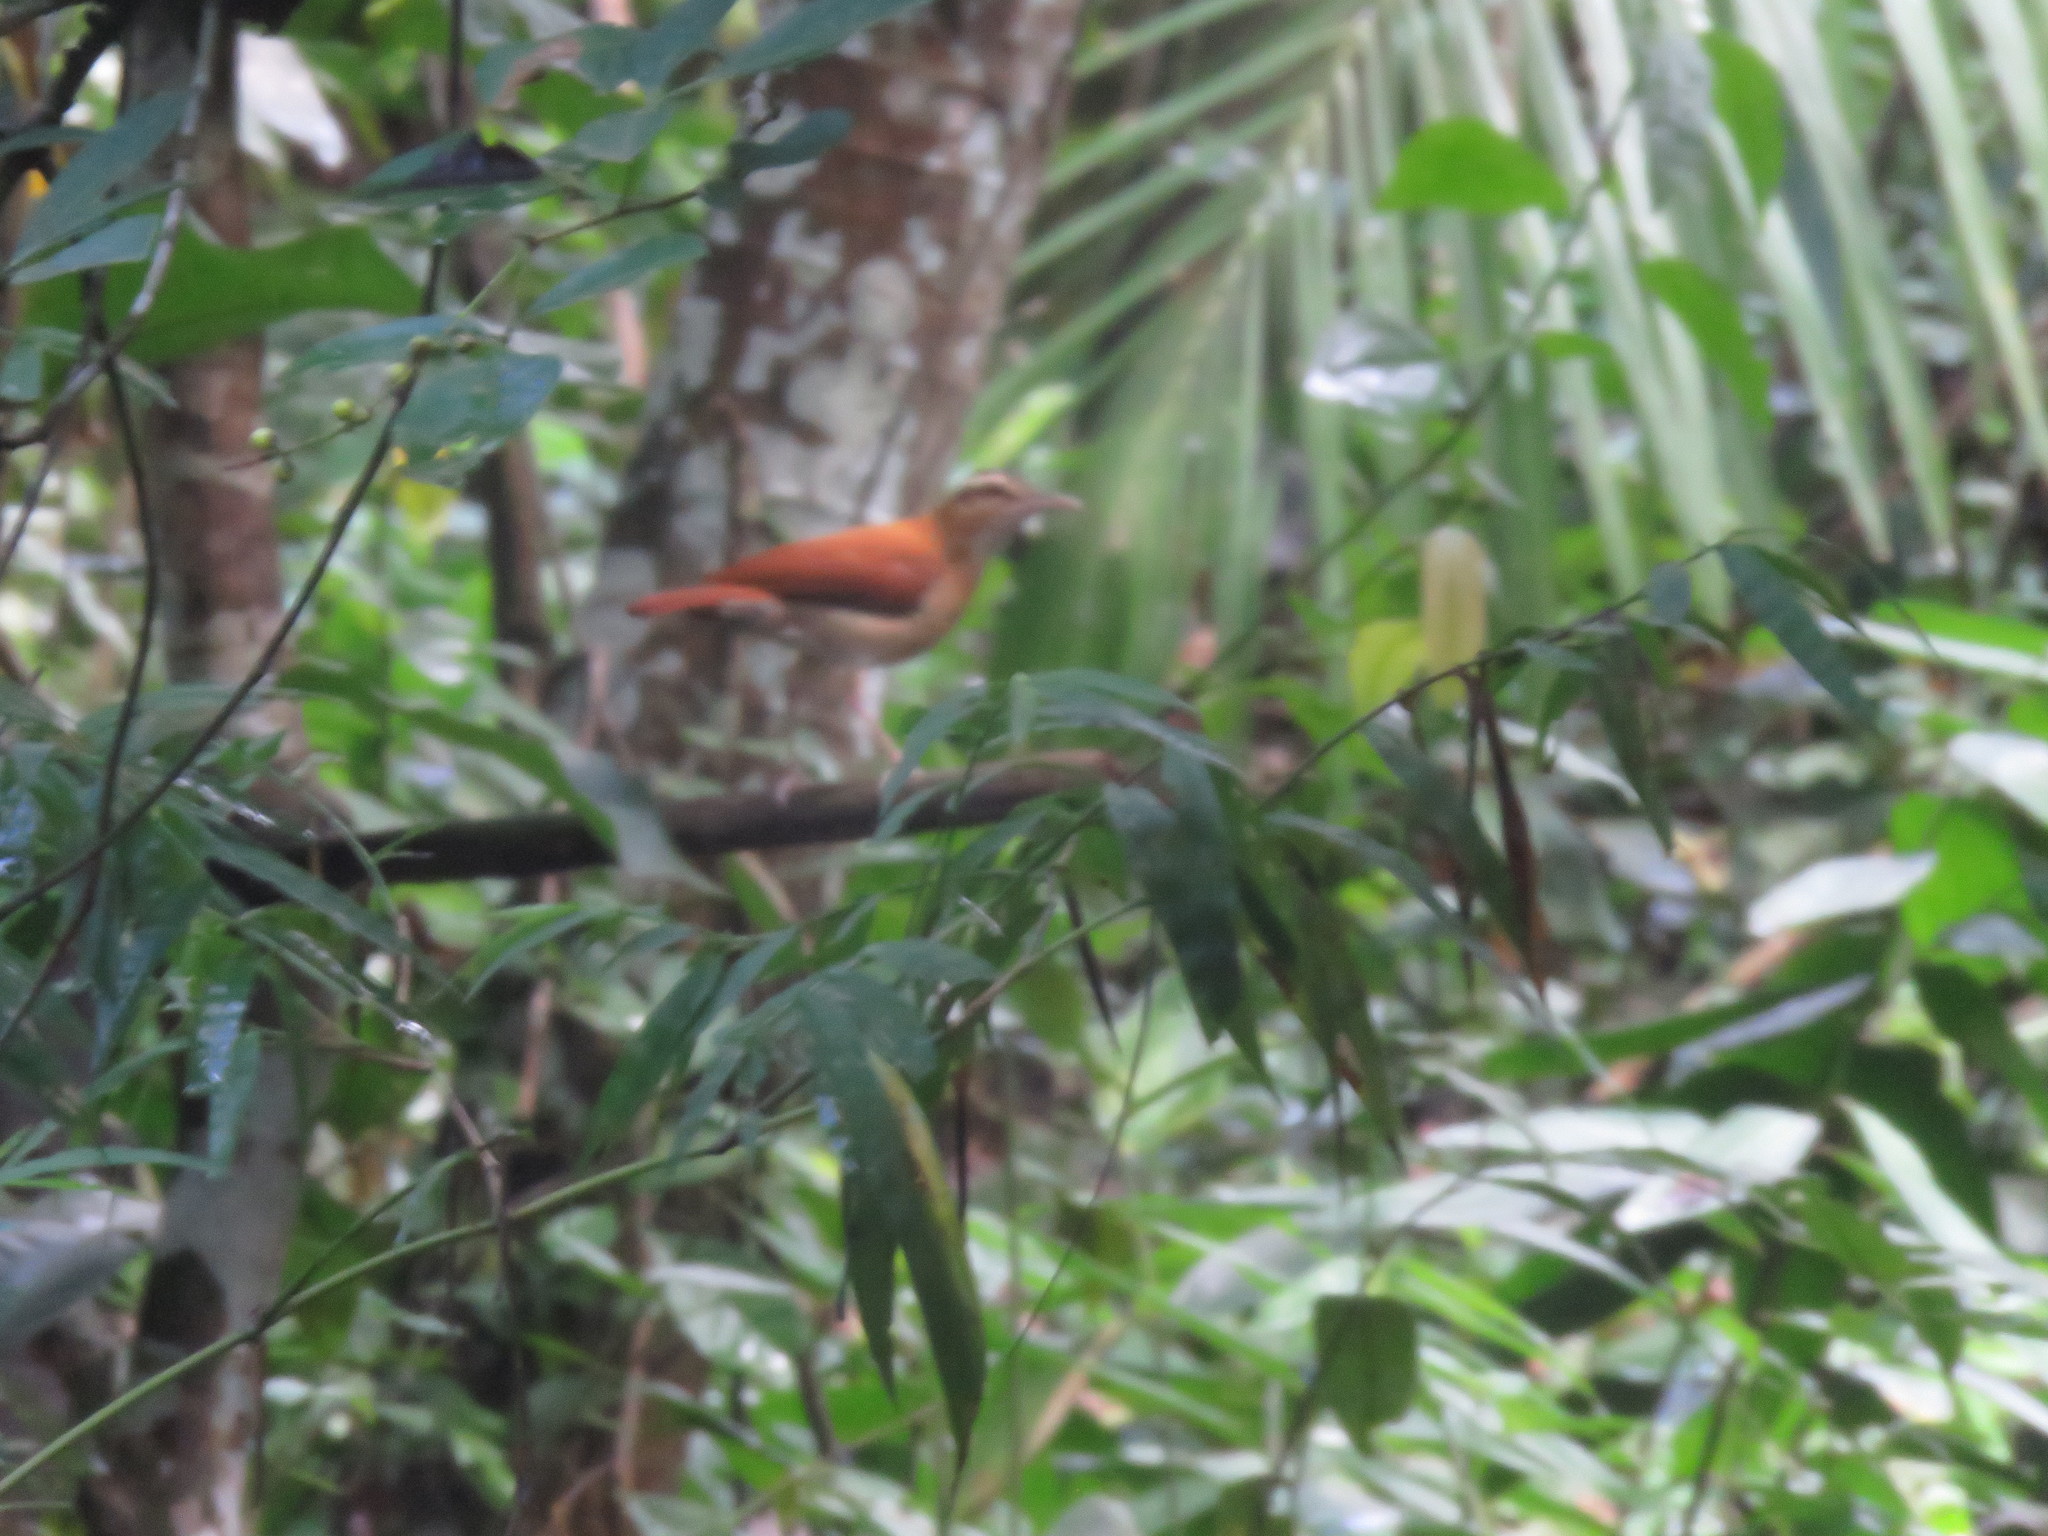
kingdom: Animalia
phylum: Chordata
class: Aves
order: Passeriformes
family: Furnariidae
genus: Furnarius
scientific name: Furnarius leucopus
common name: Pale-legged hornero
